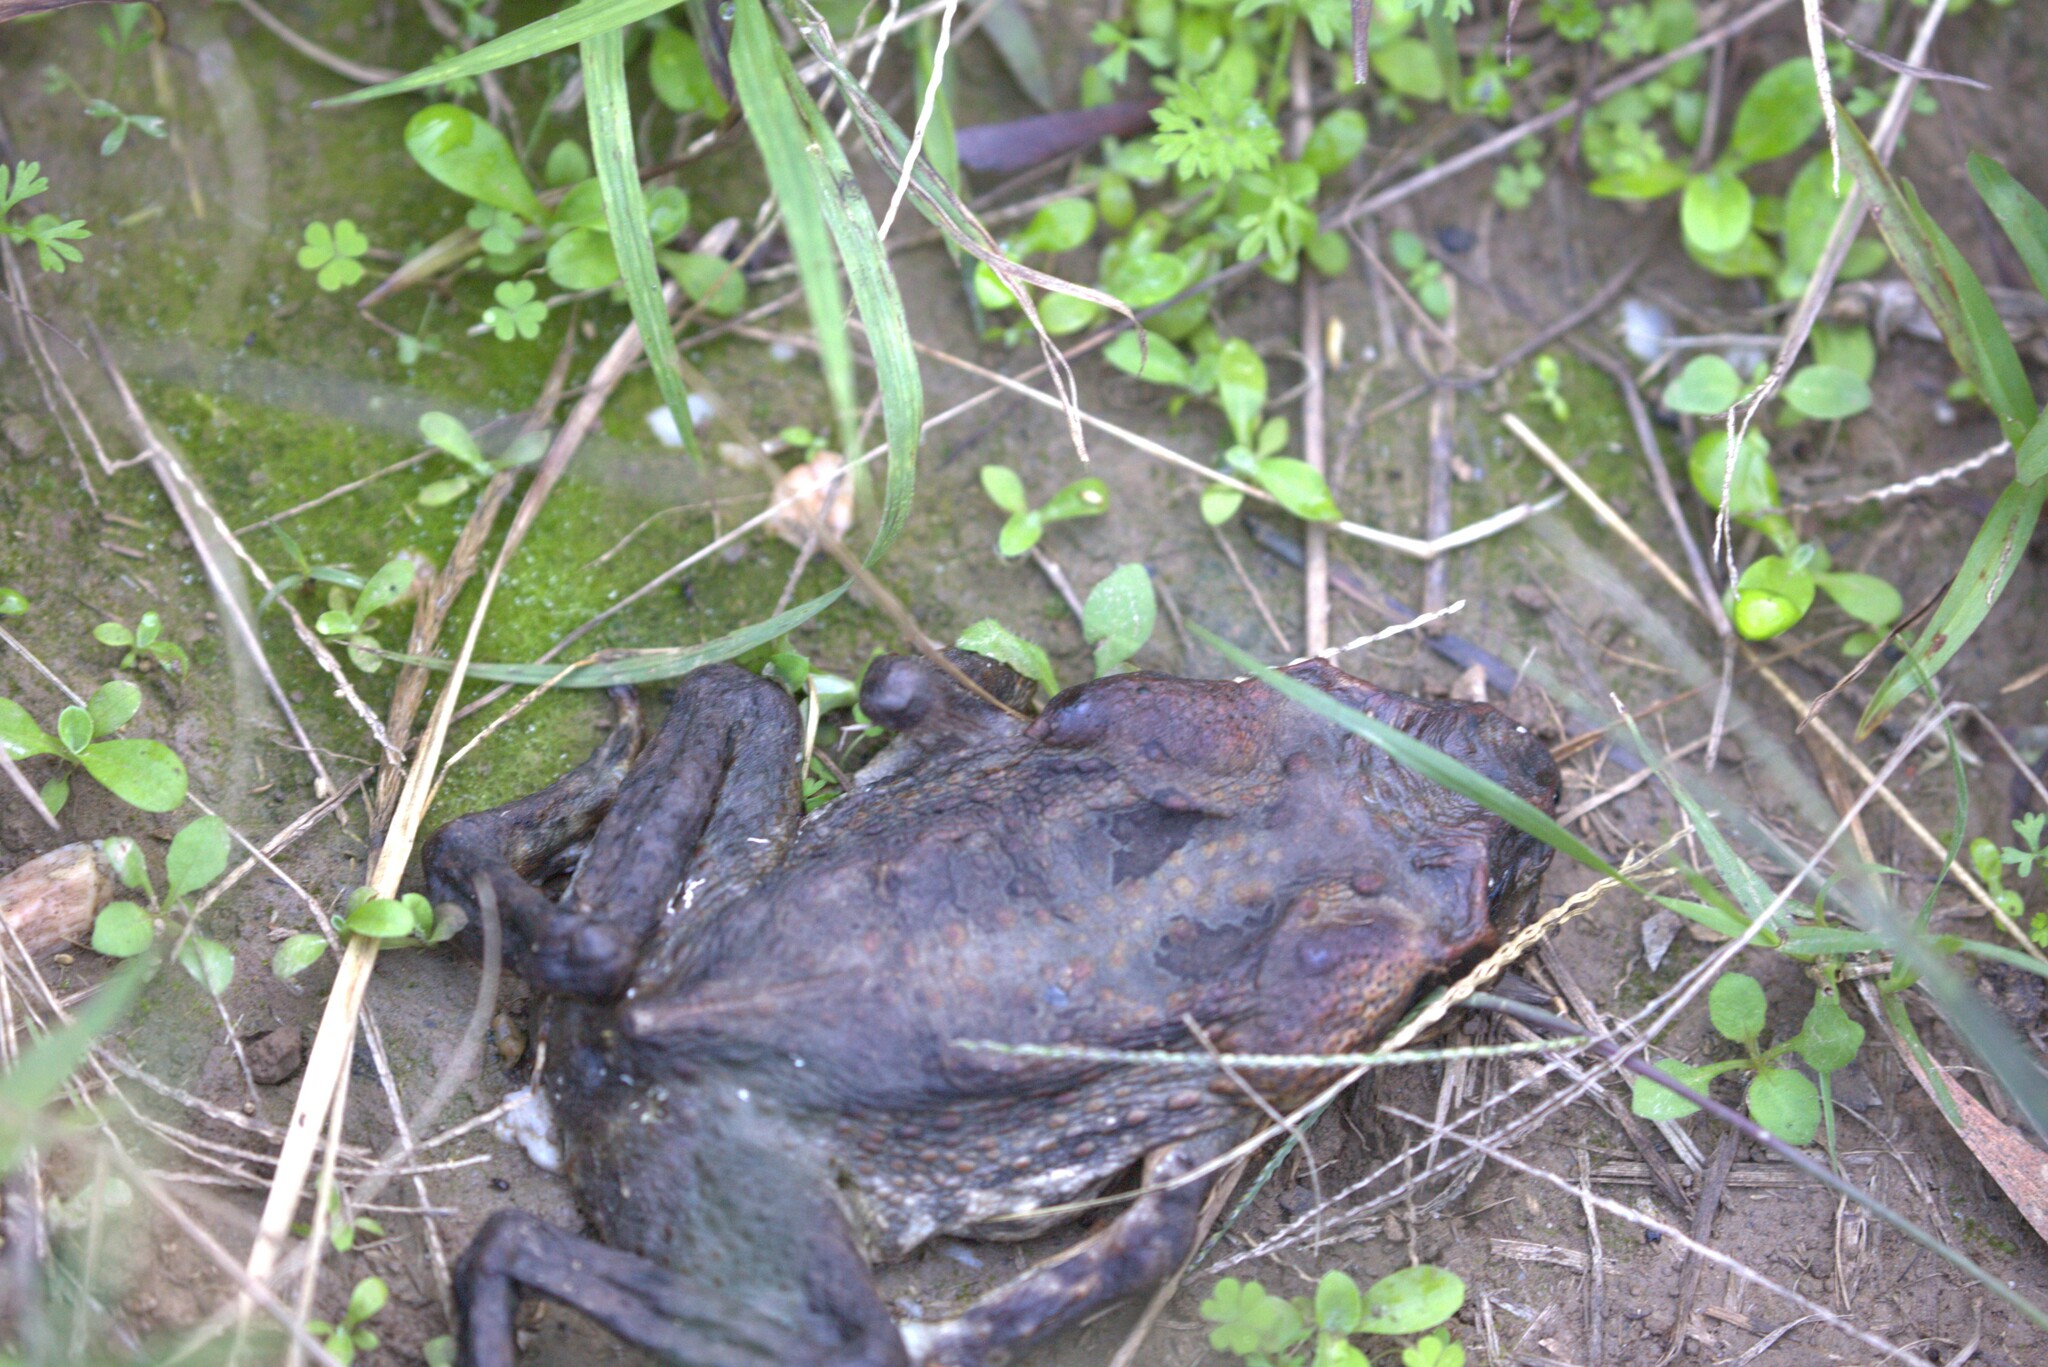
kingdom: Animalia
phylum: Chordata
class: Amphibia
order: Anura
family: Bufonidae
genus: Rhinella
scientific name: Rhinella marina
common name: Cane toad
